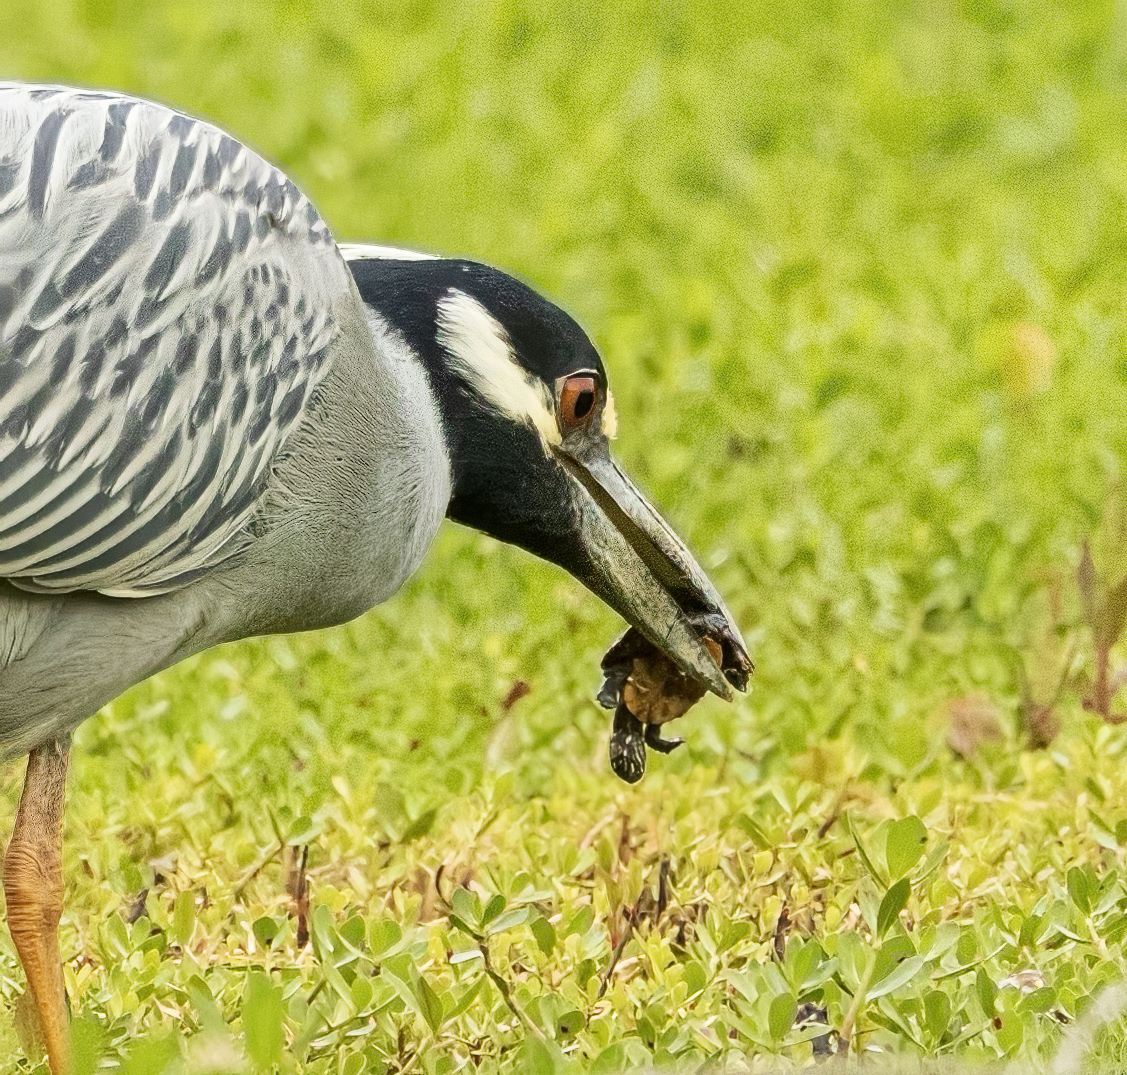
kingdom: Animalia
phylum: Chordata
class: Testudines
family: Emydidae
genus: Chrysemys
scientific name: Chrysemys picta
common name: Painted turtle
